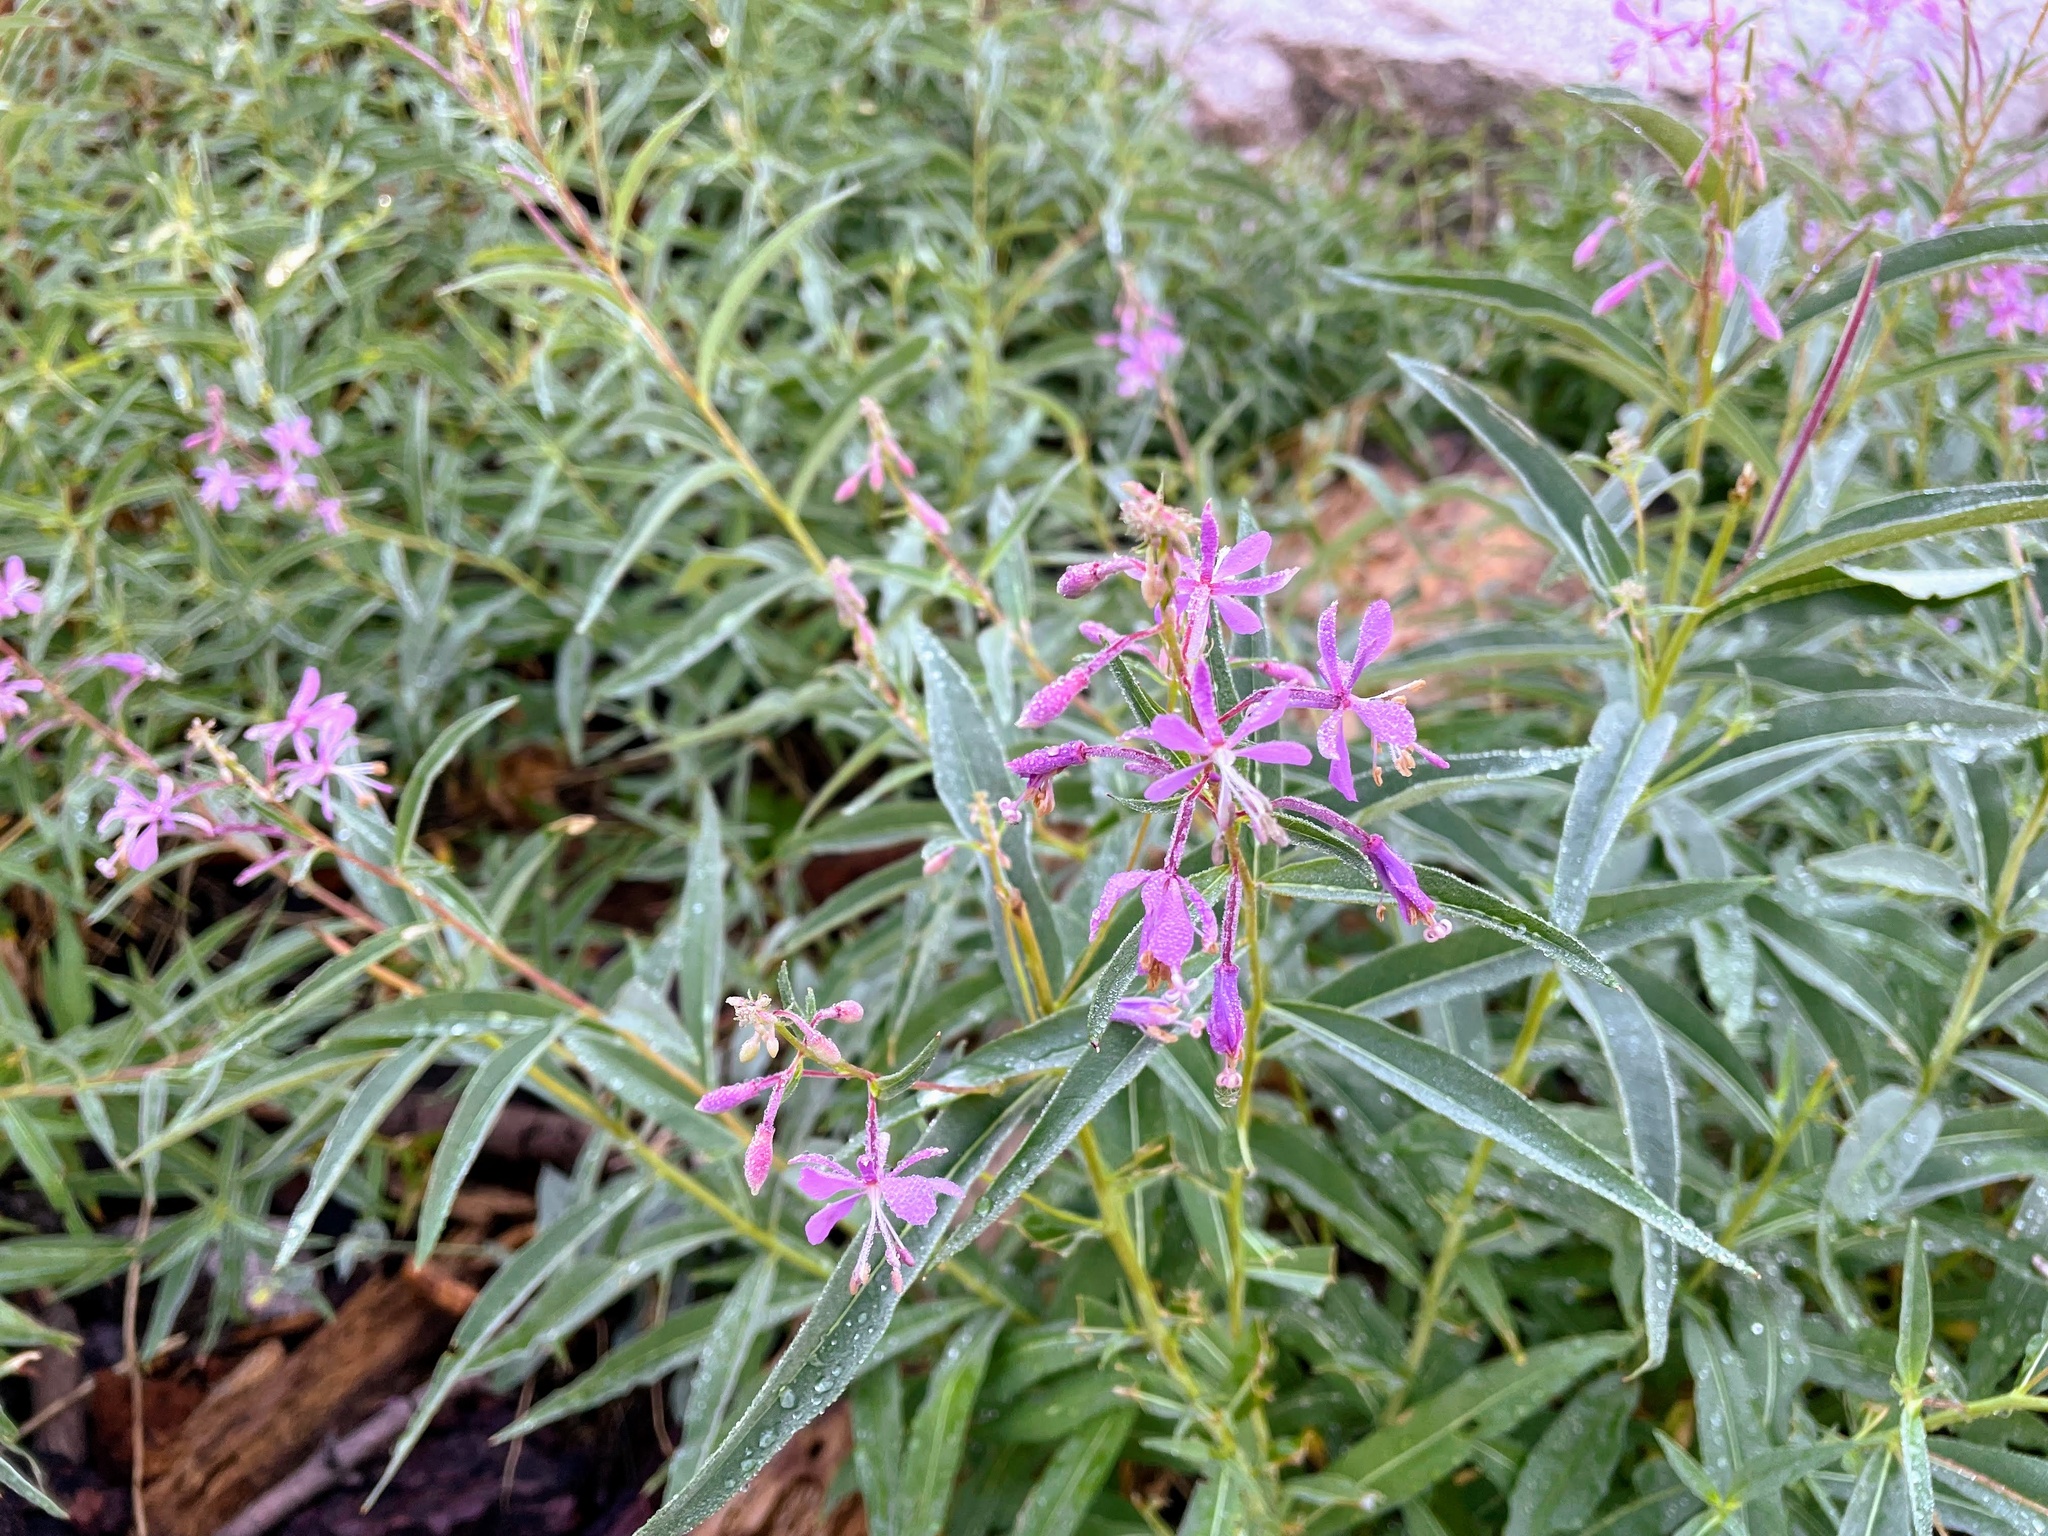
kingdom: Plantae
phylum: Tracheophyta
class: Magnoliopsida
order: Myrtales
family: Onagraceae
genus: Chamaenerion
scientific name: Chamaenerion angustifolium
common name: Fireweed
